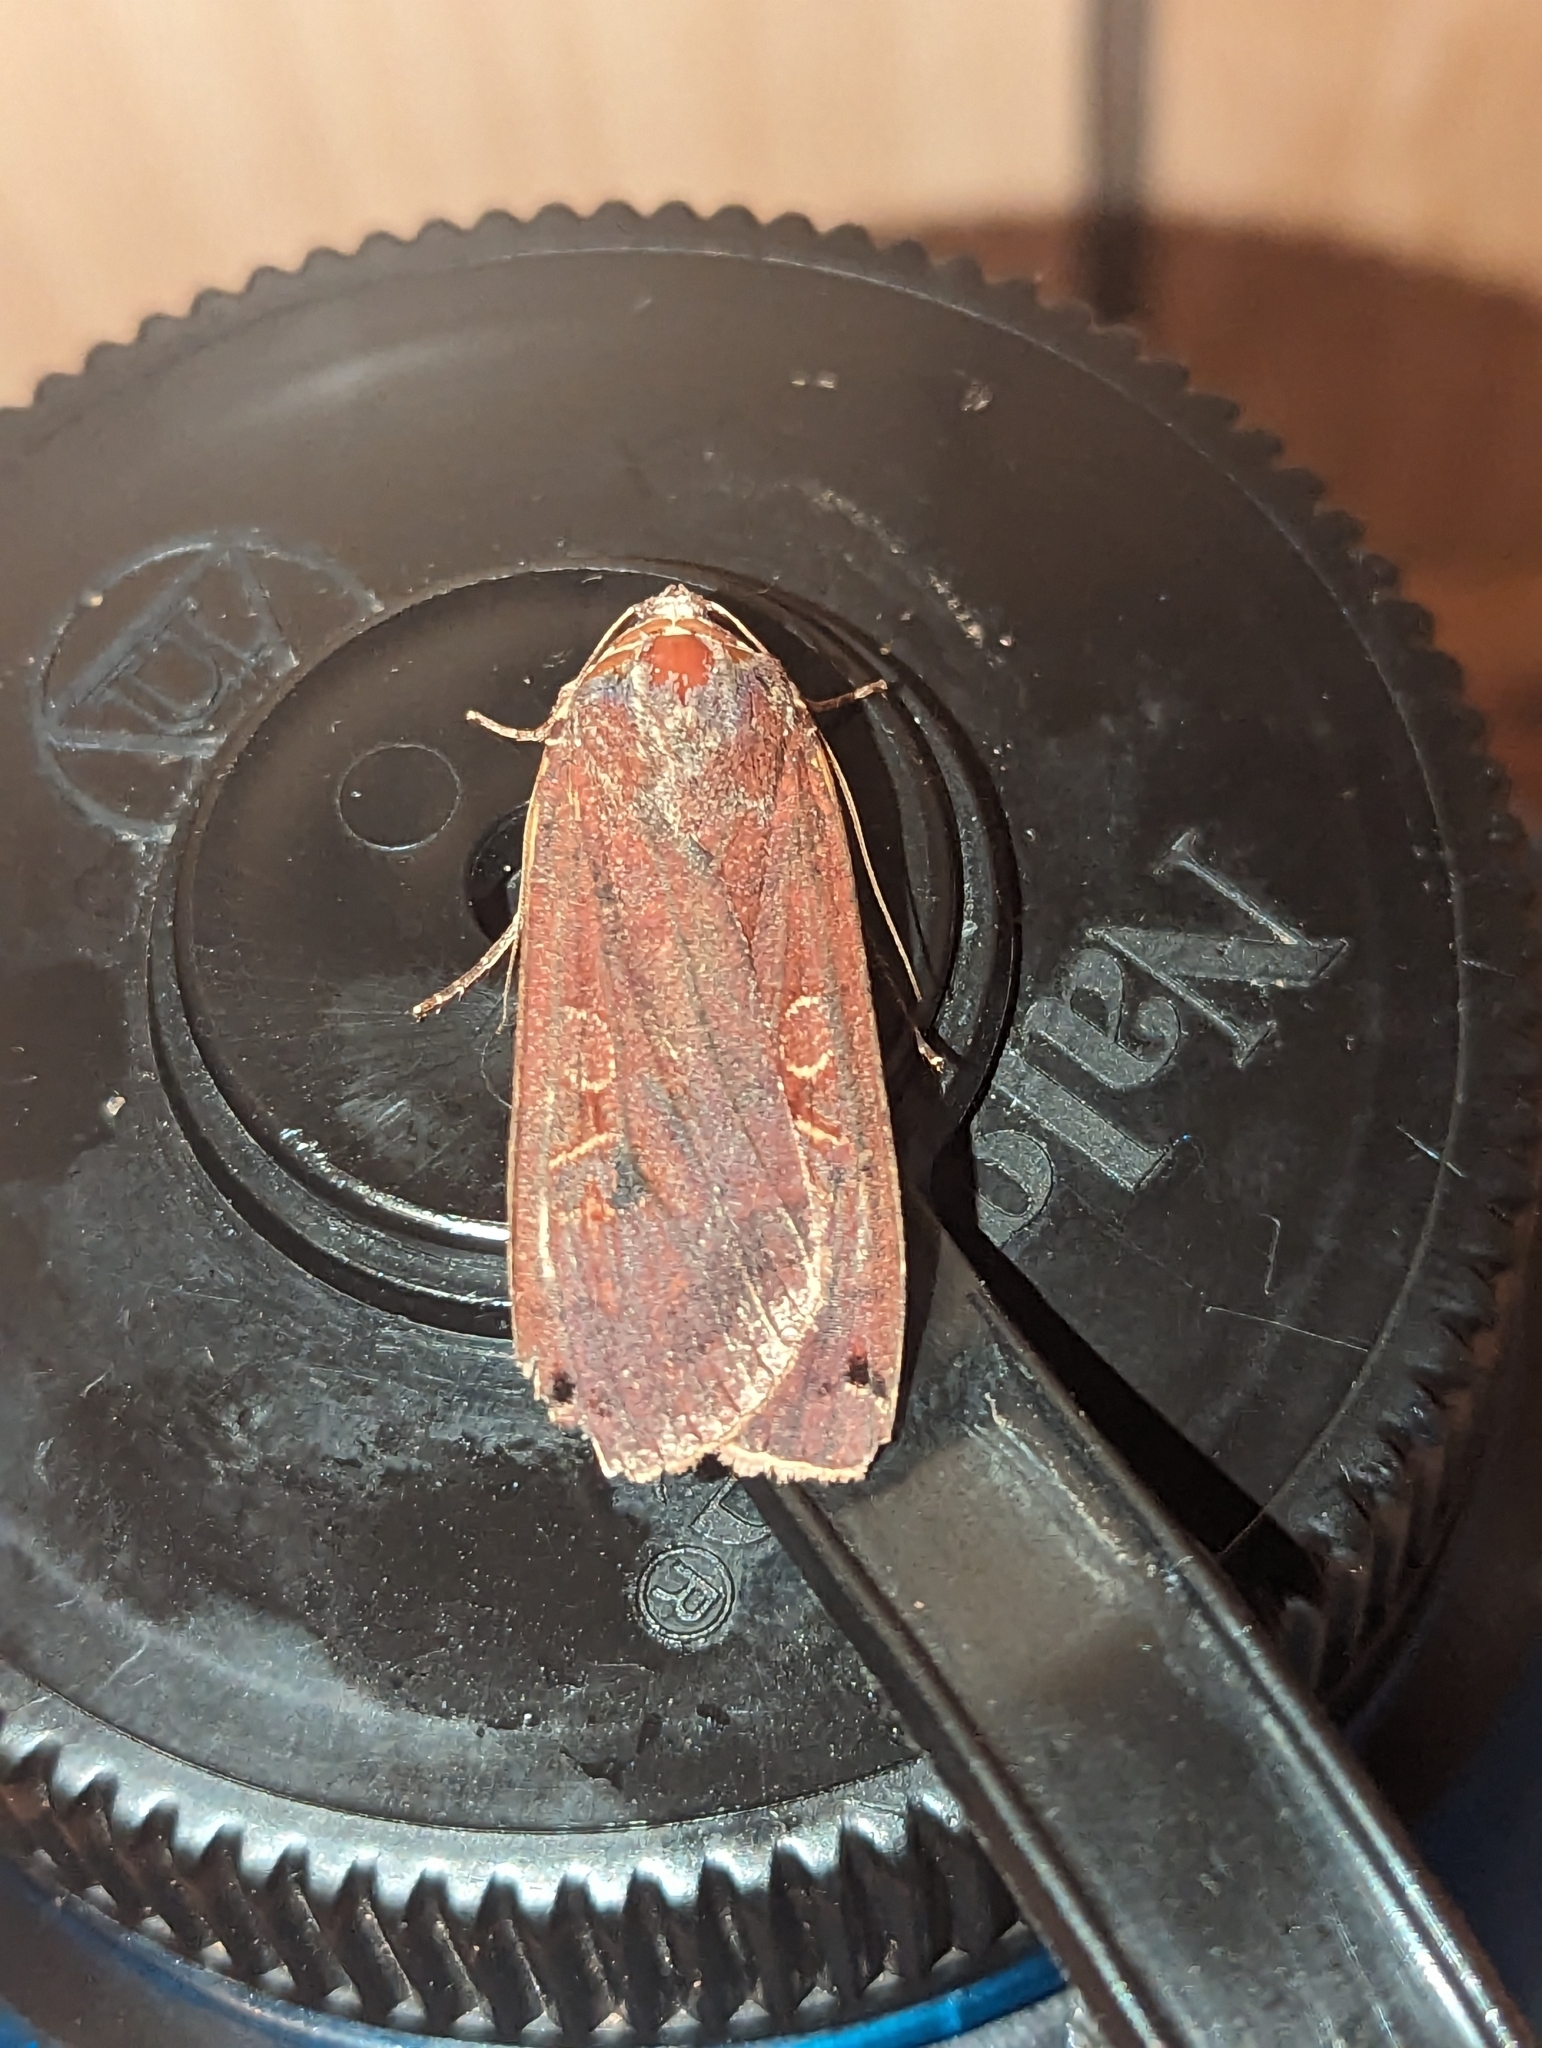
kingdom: Animalia
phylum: Arthropoda
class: Insecta
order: Lepidoptera
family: Noctuidae
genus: Noctua
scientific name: Noctua pronuba
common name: Large yellow underwing
